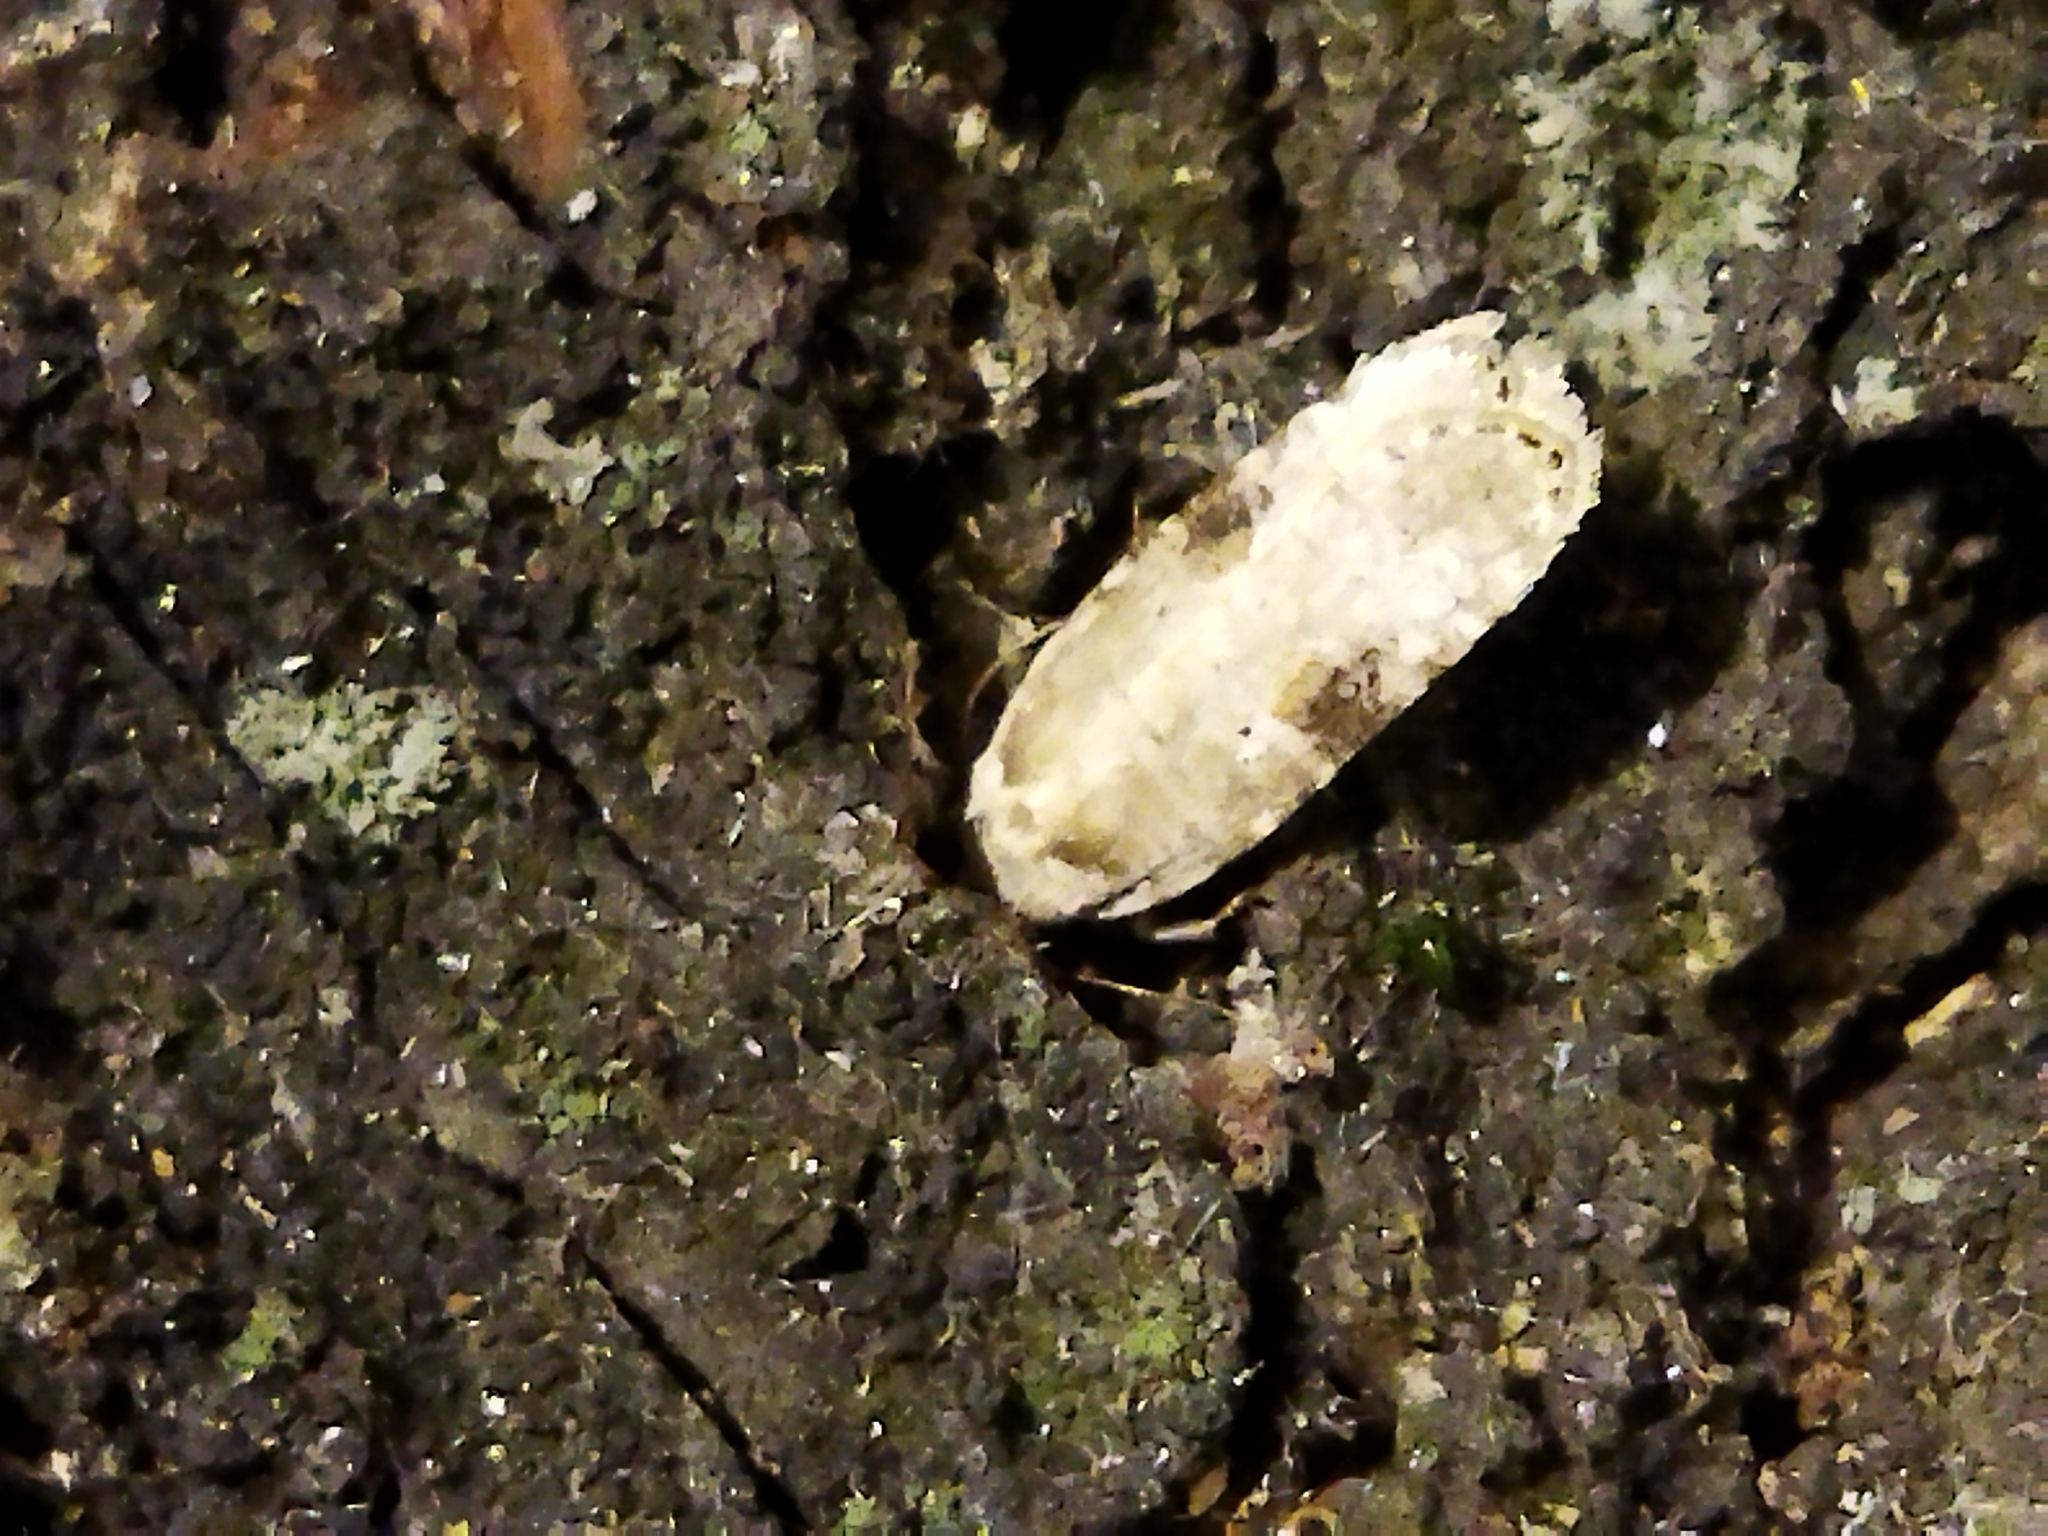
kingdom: Animalia
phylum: Arthropoda
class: Insecta
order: Lepidoptera
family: Depressariidae
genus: Agonopterix
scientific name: Agonopterix alstroemeriana
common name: Moth
